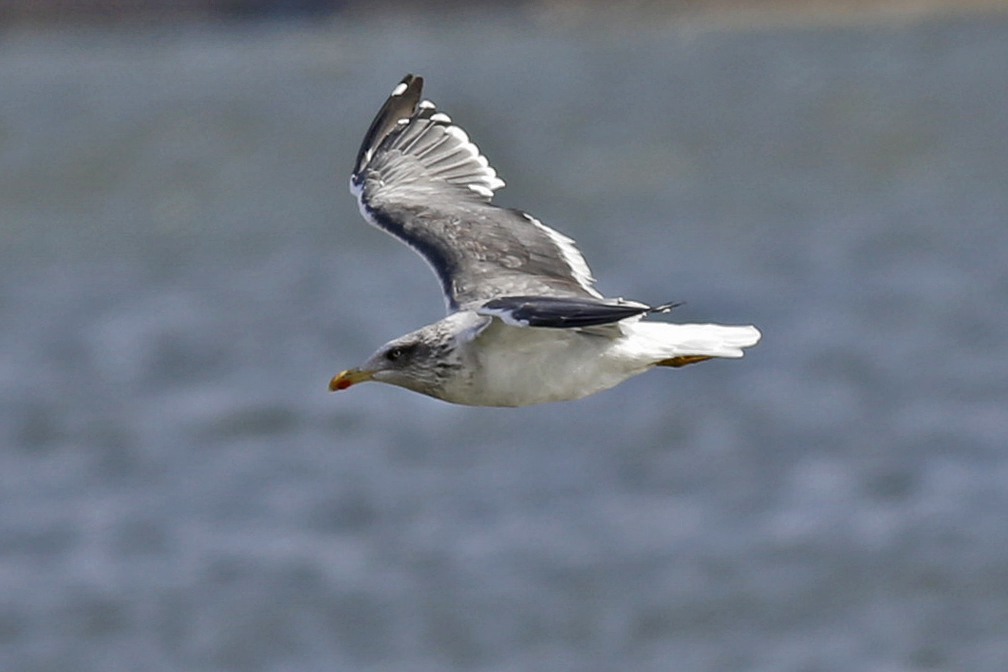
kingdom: Animalia
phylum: Chordata
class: Aves
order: Charadriiformes
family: Laridae
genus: Larus
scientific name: Larus fuscus
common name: Lesser black-backed gull
